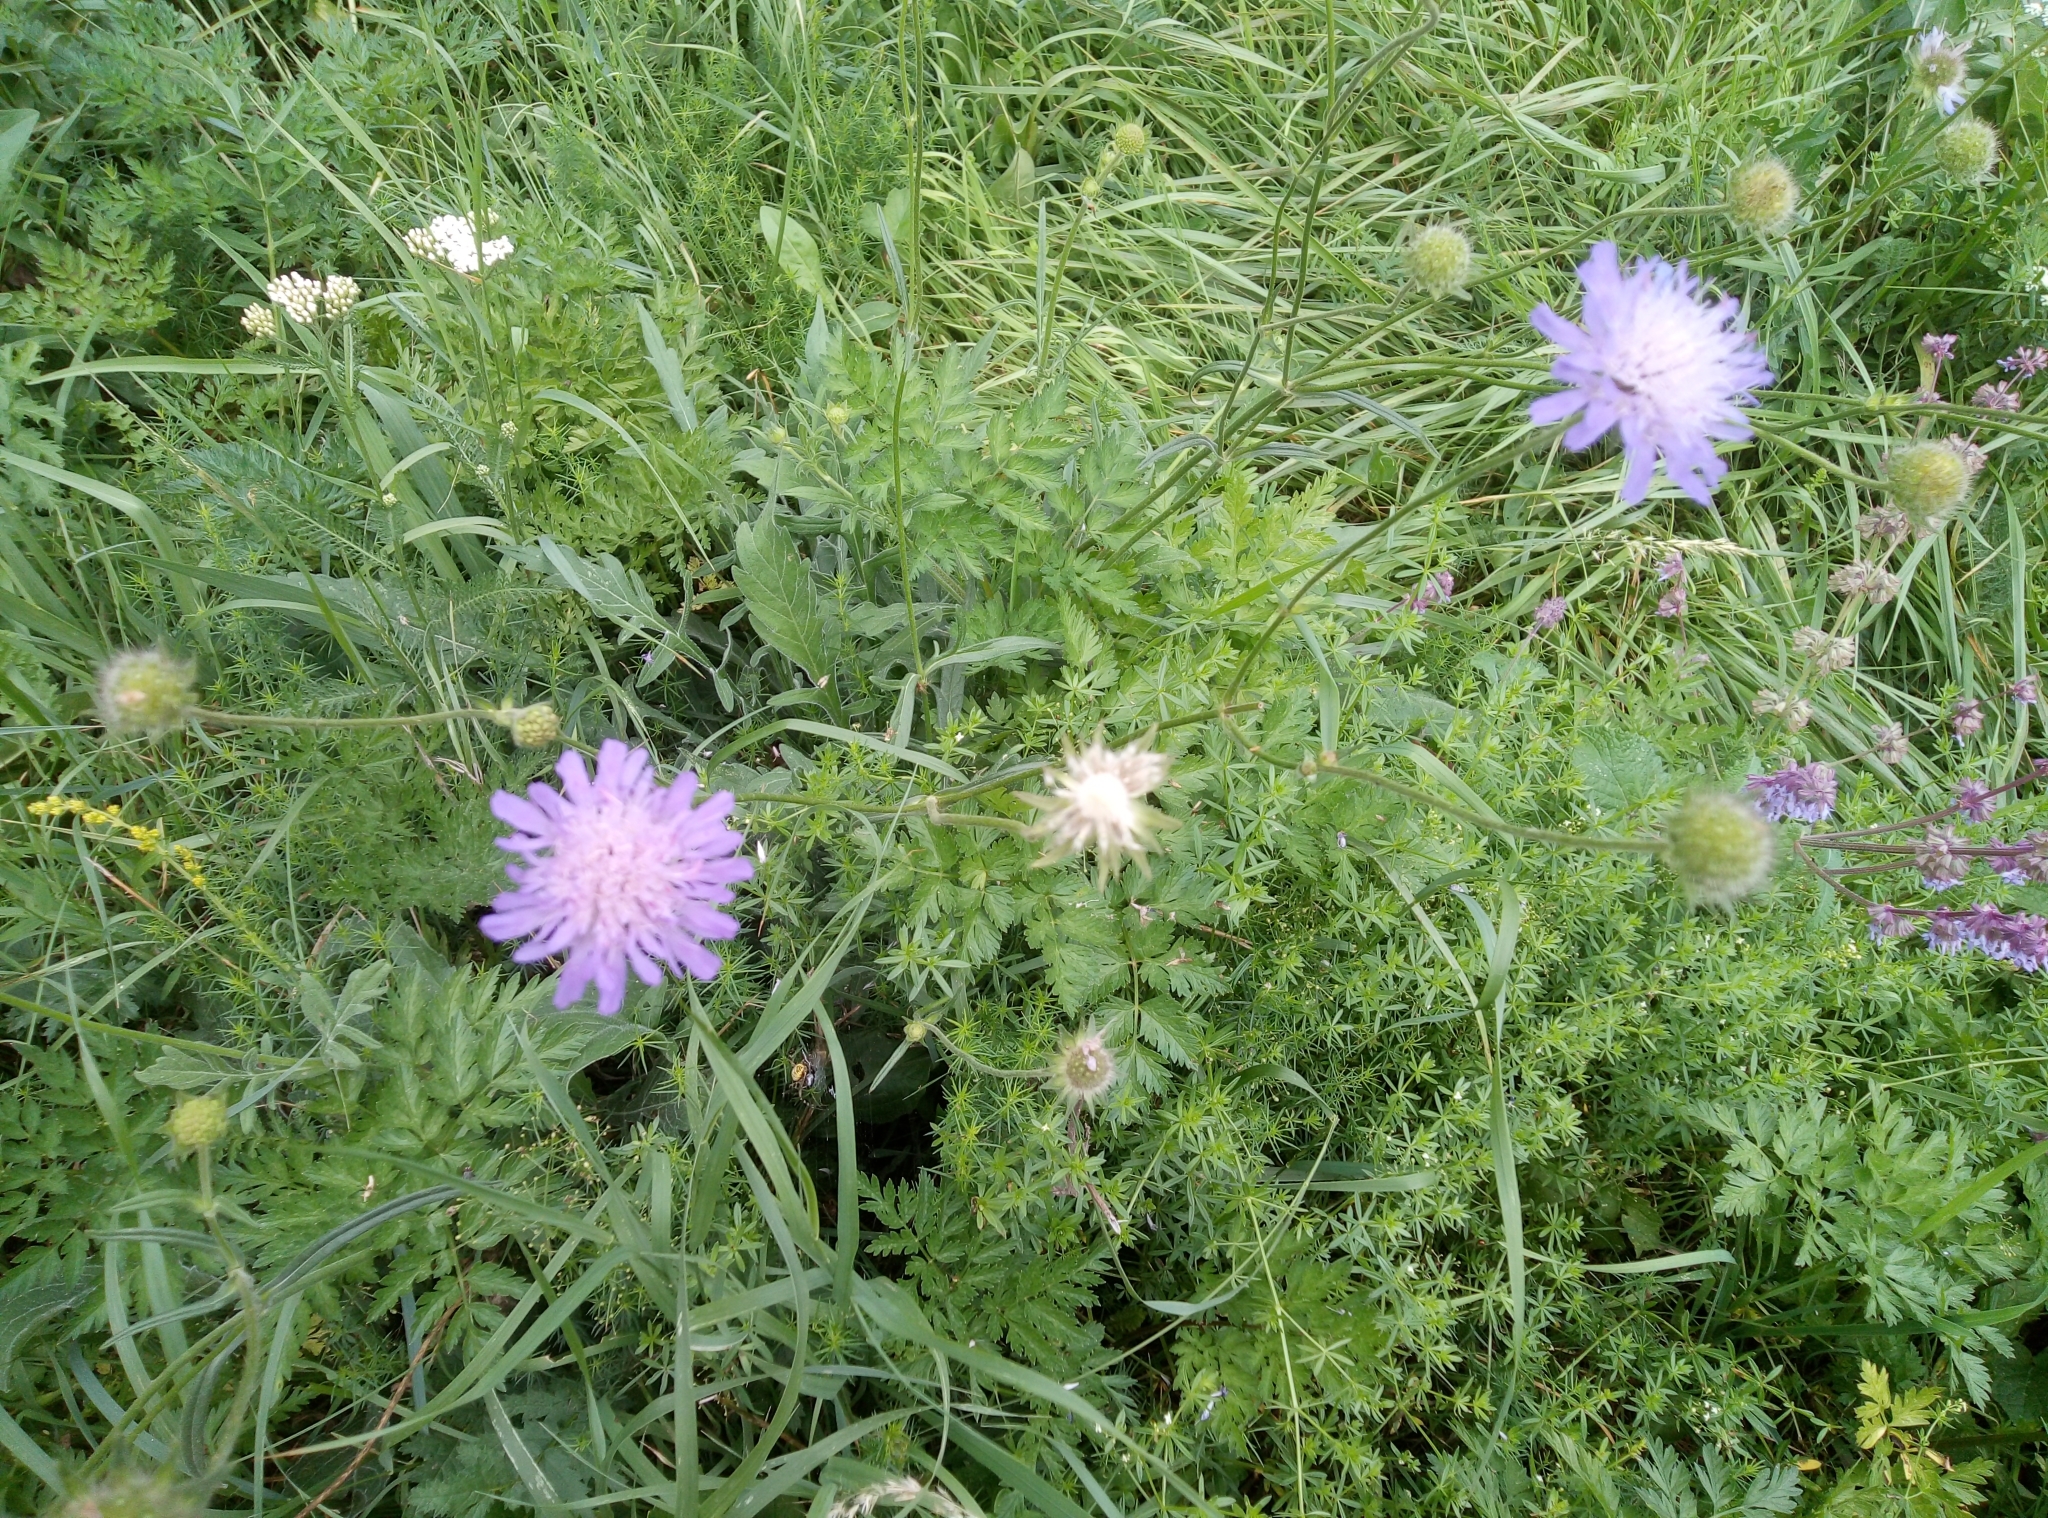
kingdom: Plantae
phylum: Tracheophyta
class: Magnoliopsida
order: Dipsacales
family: Caprifoliaceae
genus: Knautia
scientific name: Knautia arvensis
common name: Field scabiosa
